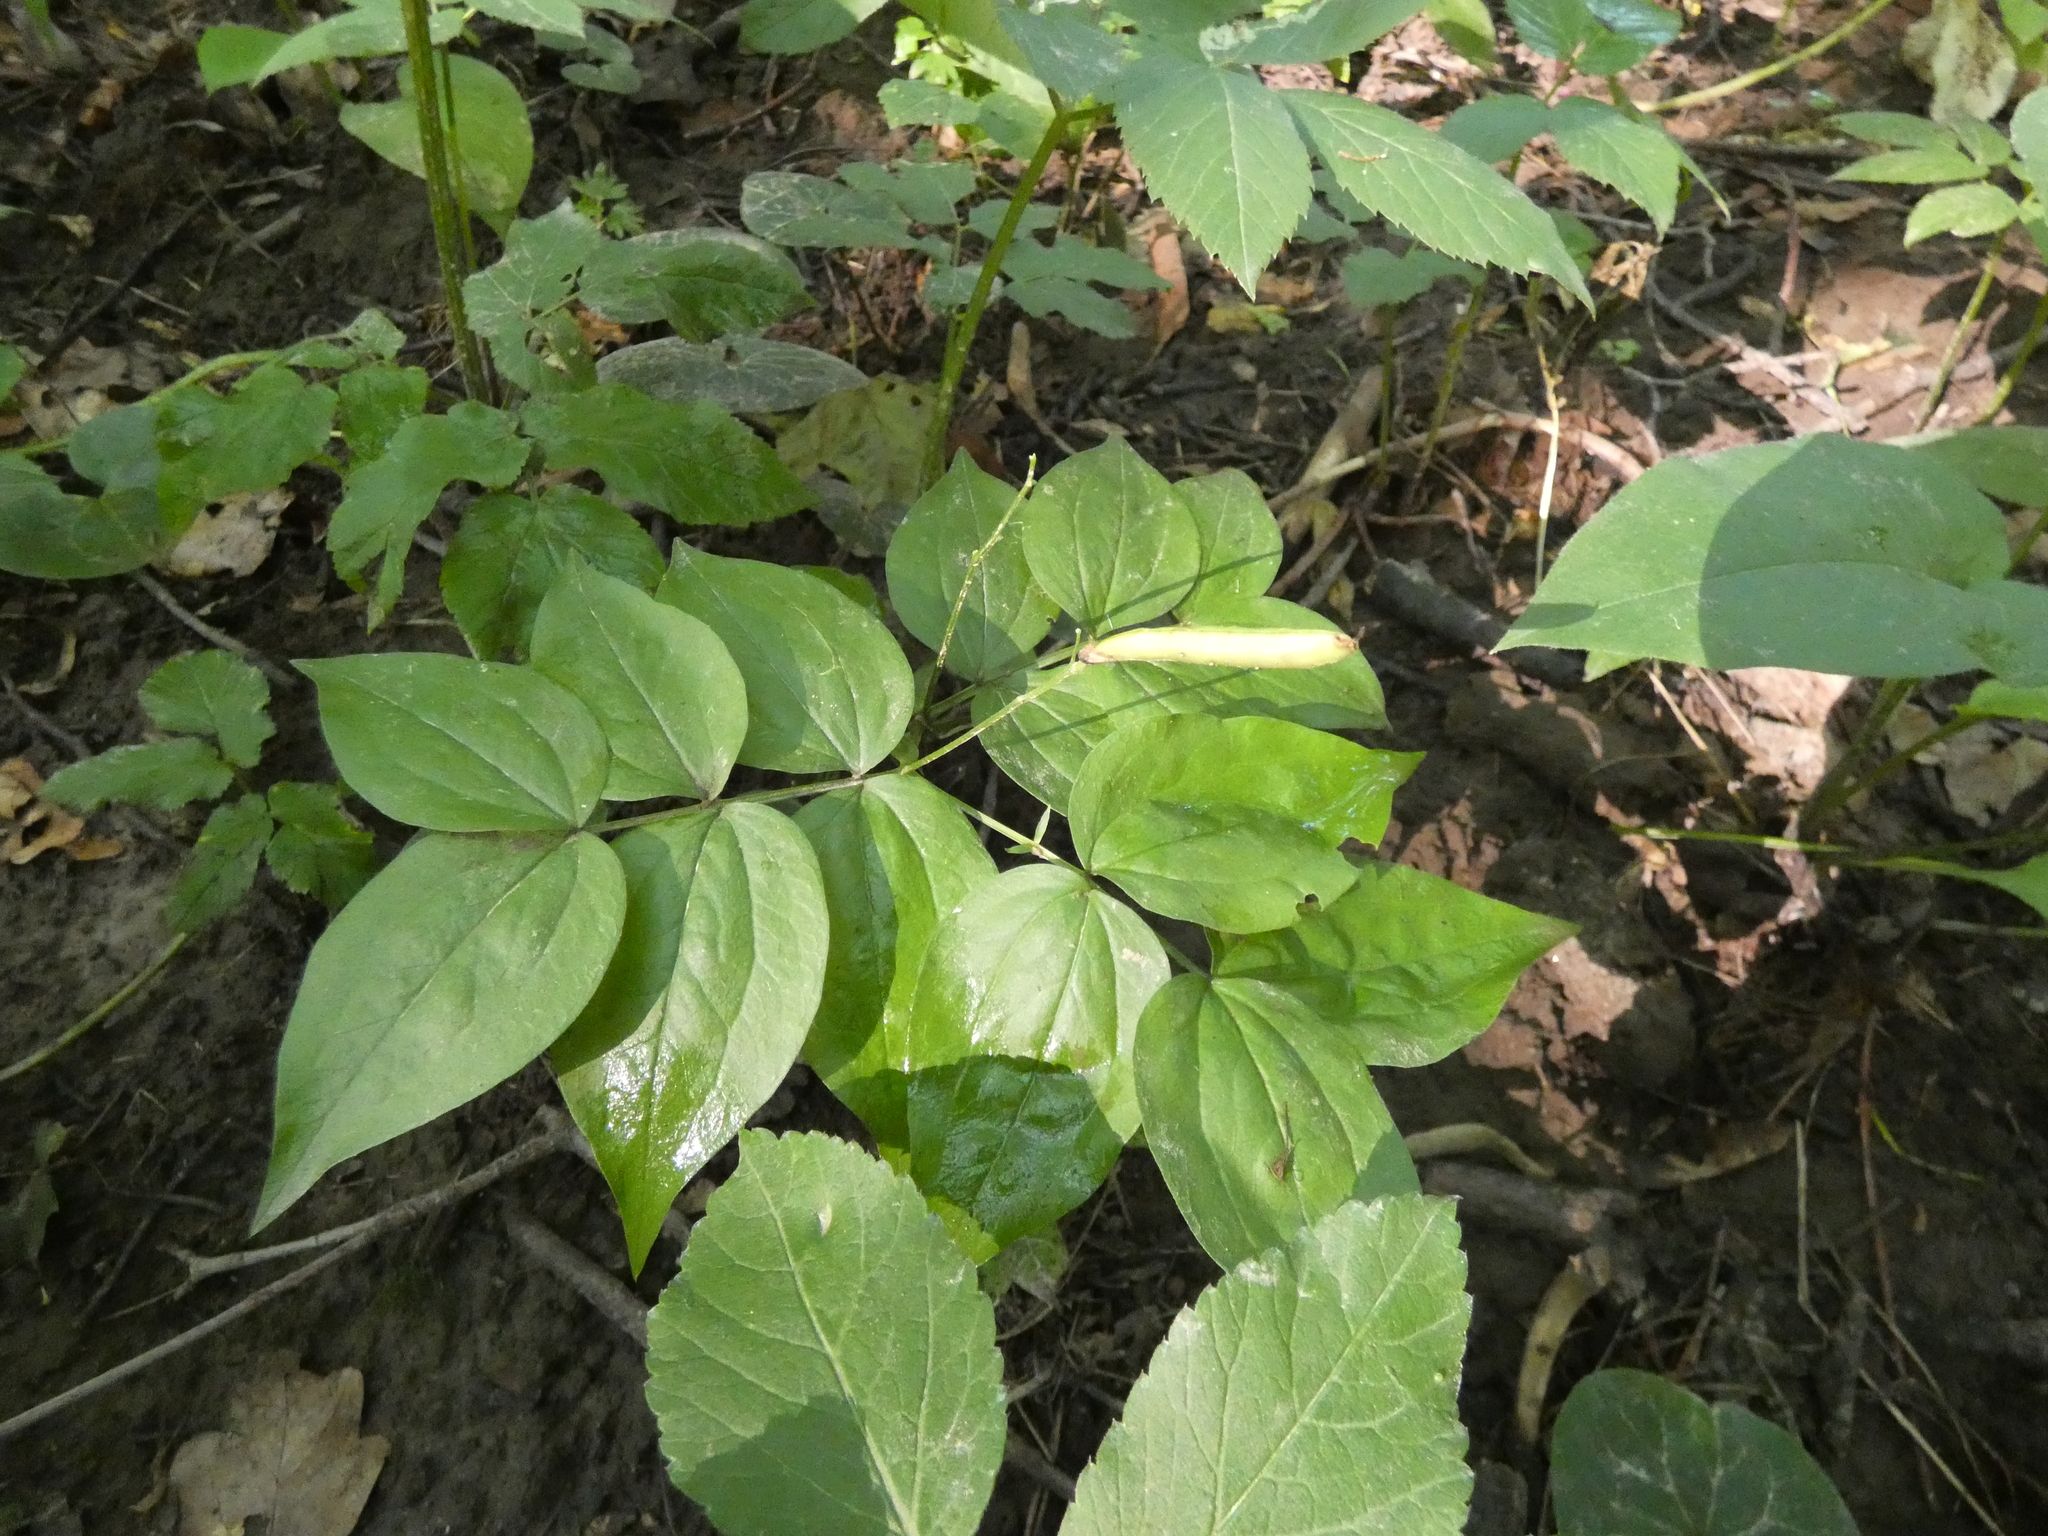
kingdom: Plantae
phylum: Tracheophyta
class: Magnoliopsida
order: Fabales
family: Fabaceae
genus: Lathyrus
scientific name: Lathyrus vernus
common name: Spring pea
